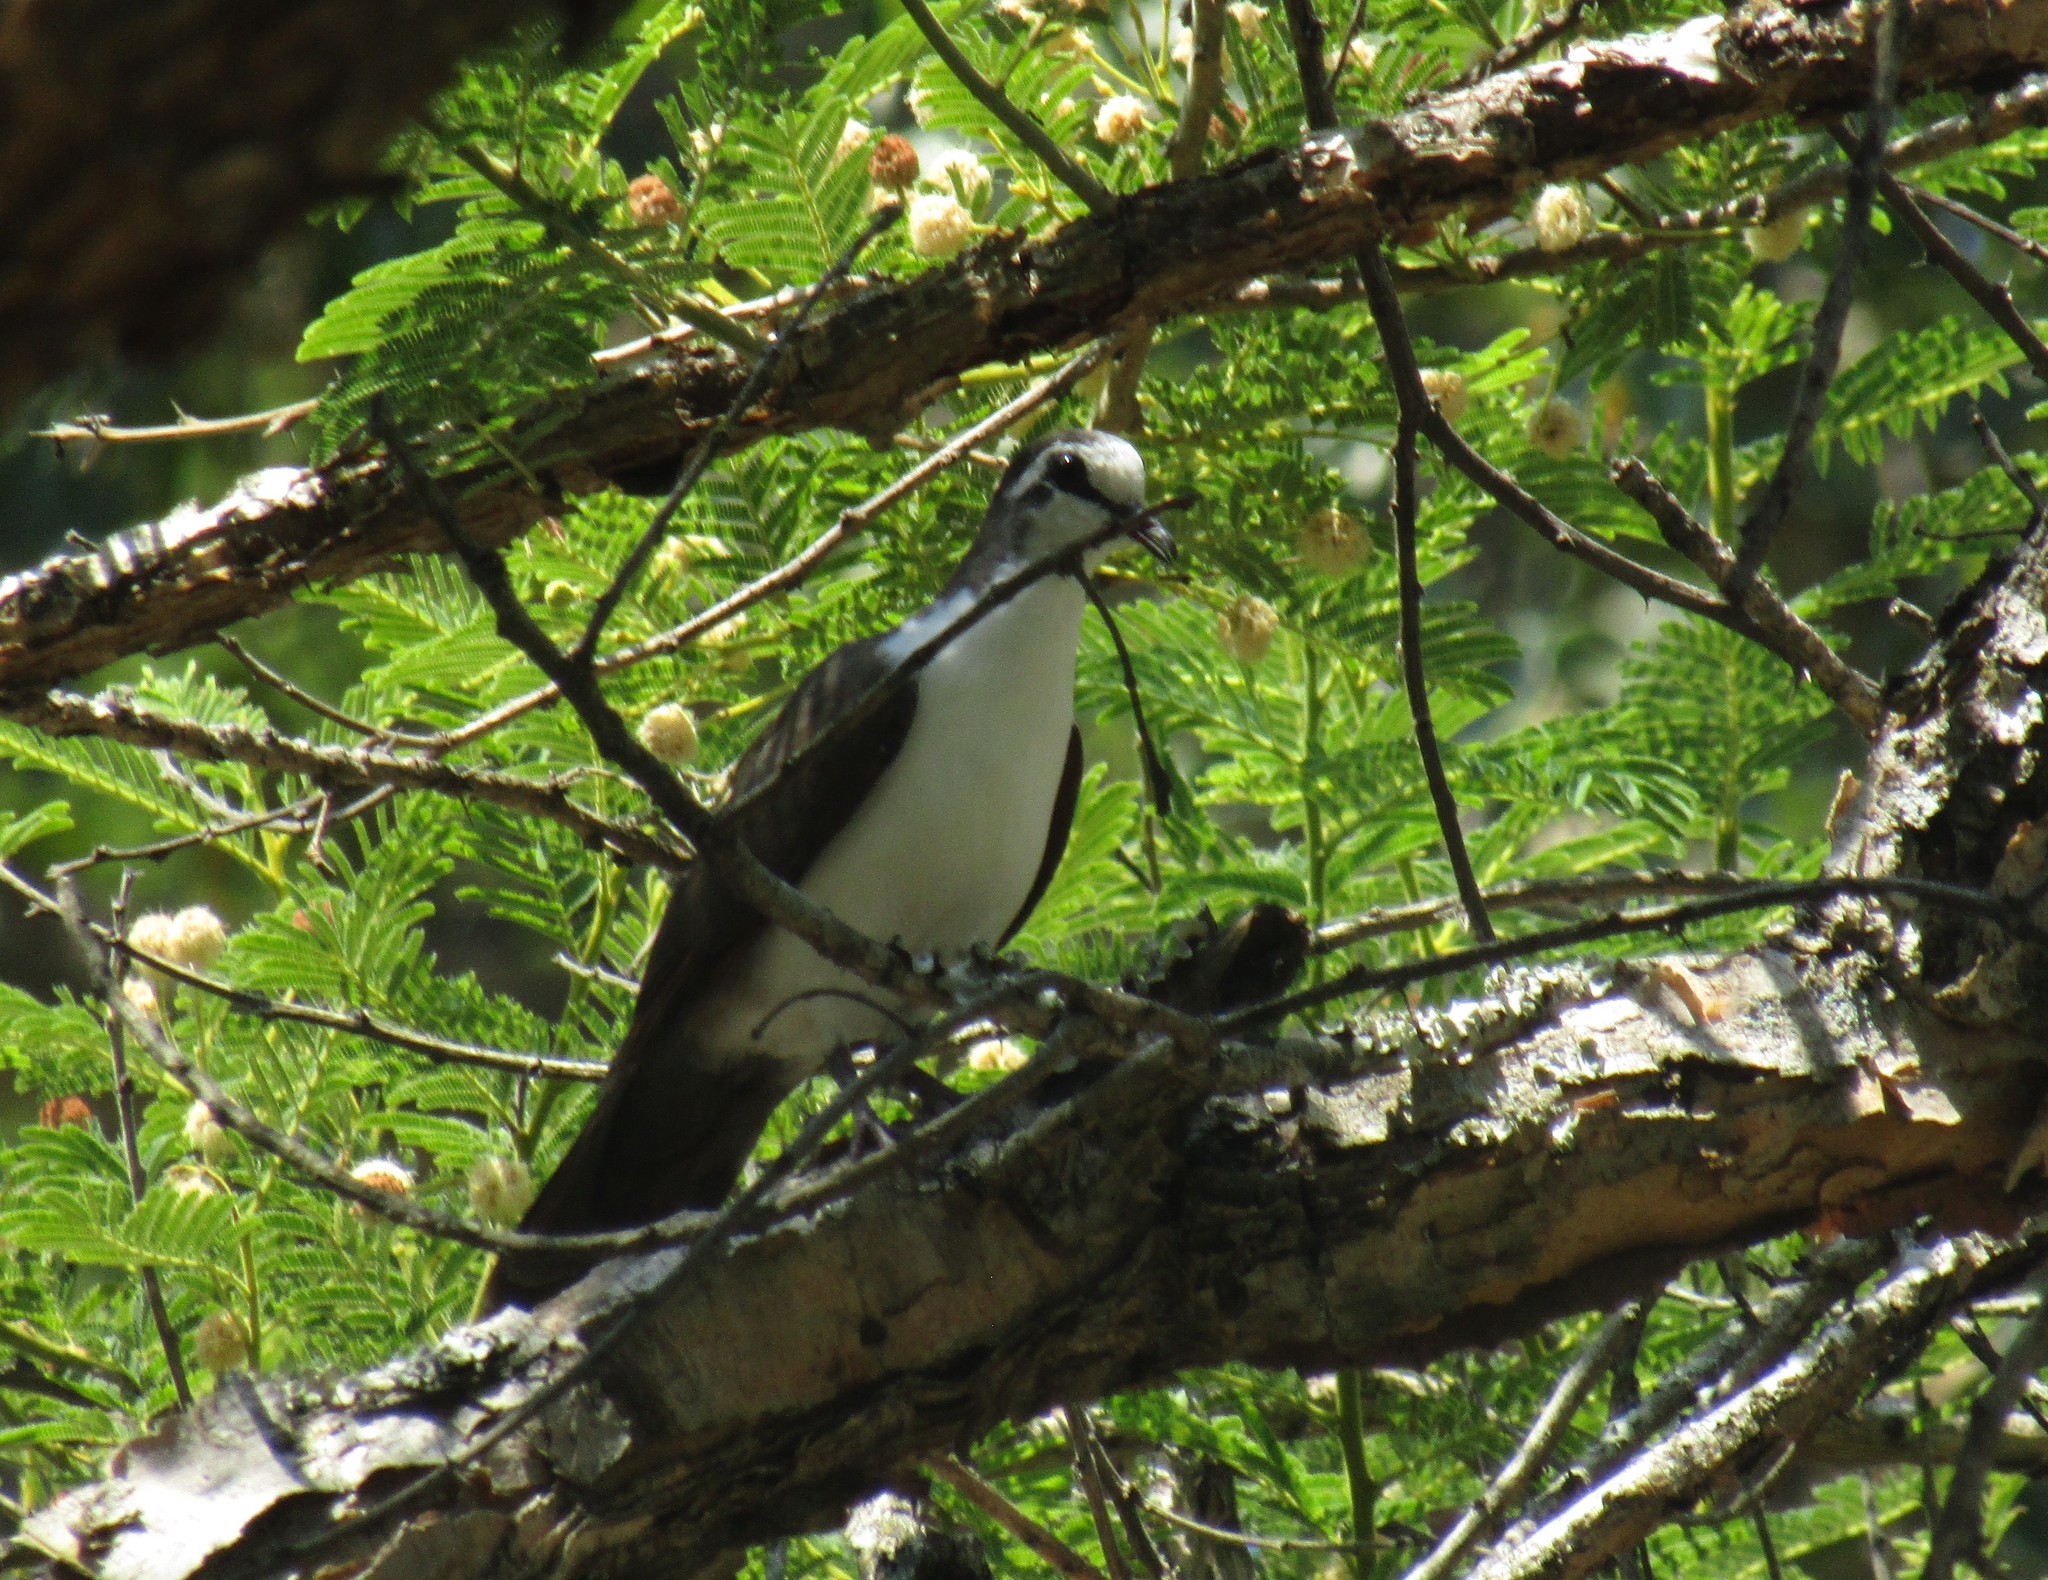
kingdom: Animalia
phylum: Chordata
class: Aves
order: Columbiformes
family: Columbidae
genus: Turtur
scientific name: Turtur tympanistria
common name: Tambourine dove
